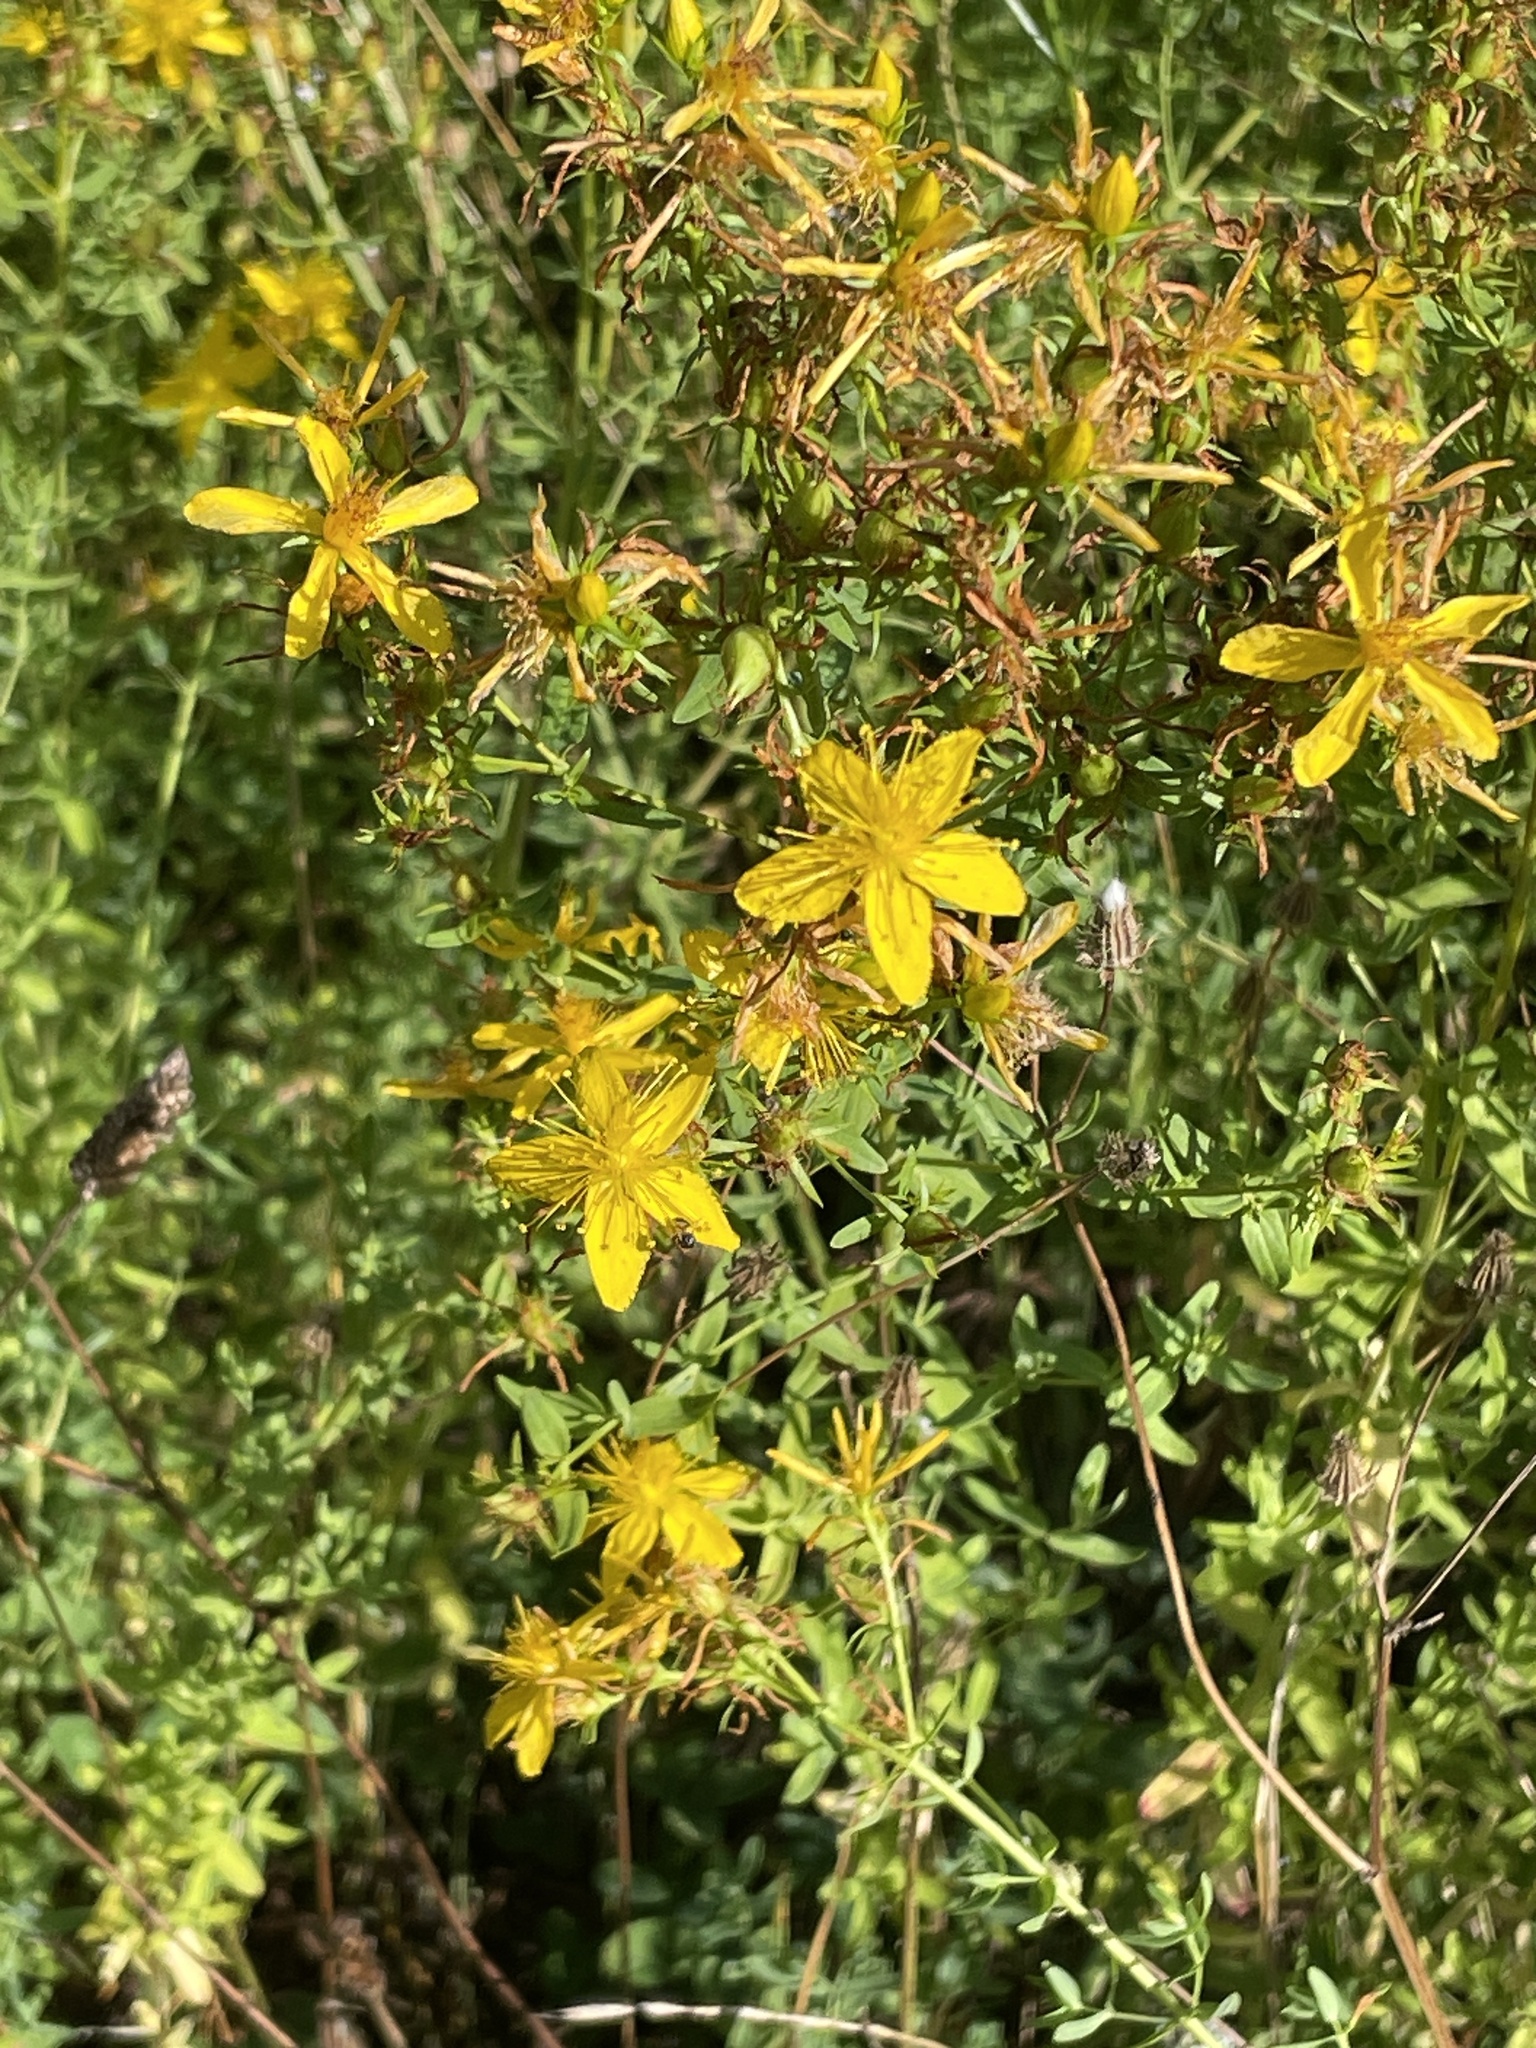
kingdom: Plantae
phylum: Tracheophyta
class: Magnoliopsida
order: Malpighiales
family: Hypericaceae
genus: Hypericum
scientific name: Hypericum perforatum
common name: Common st. johnswort
